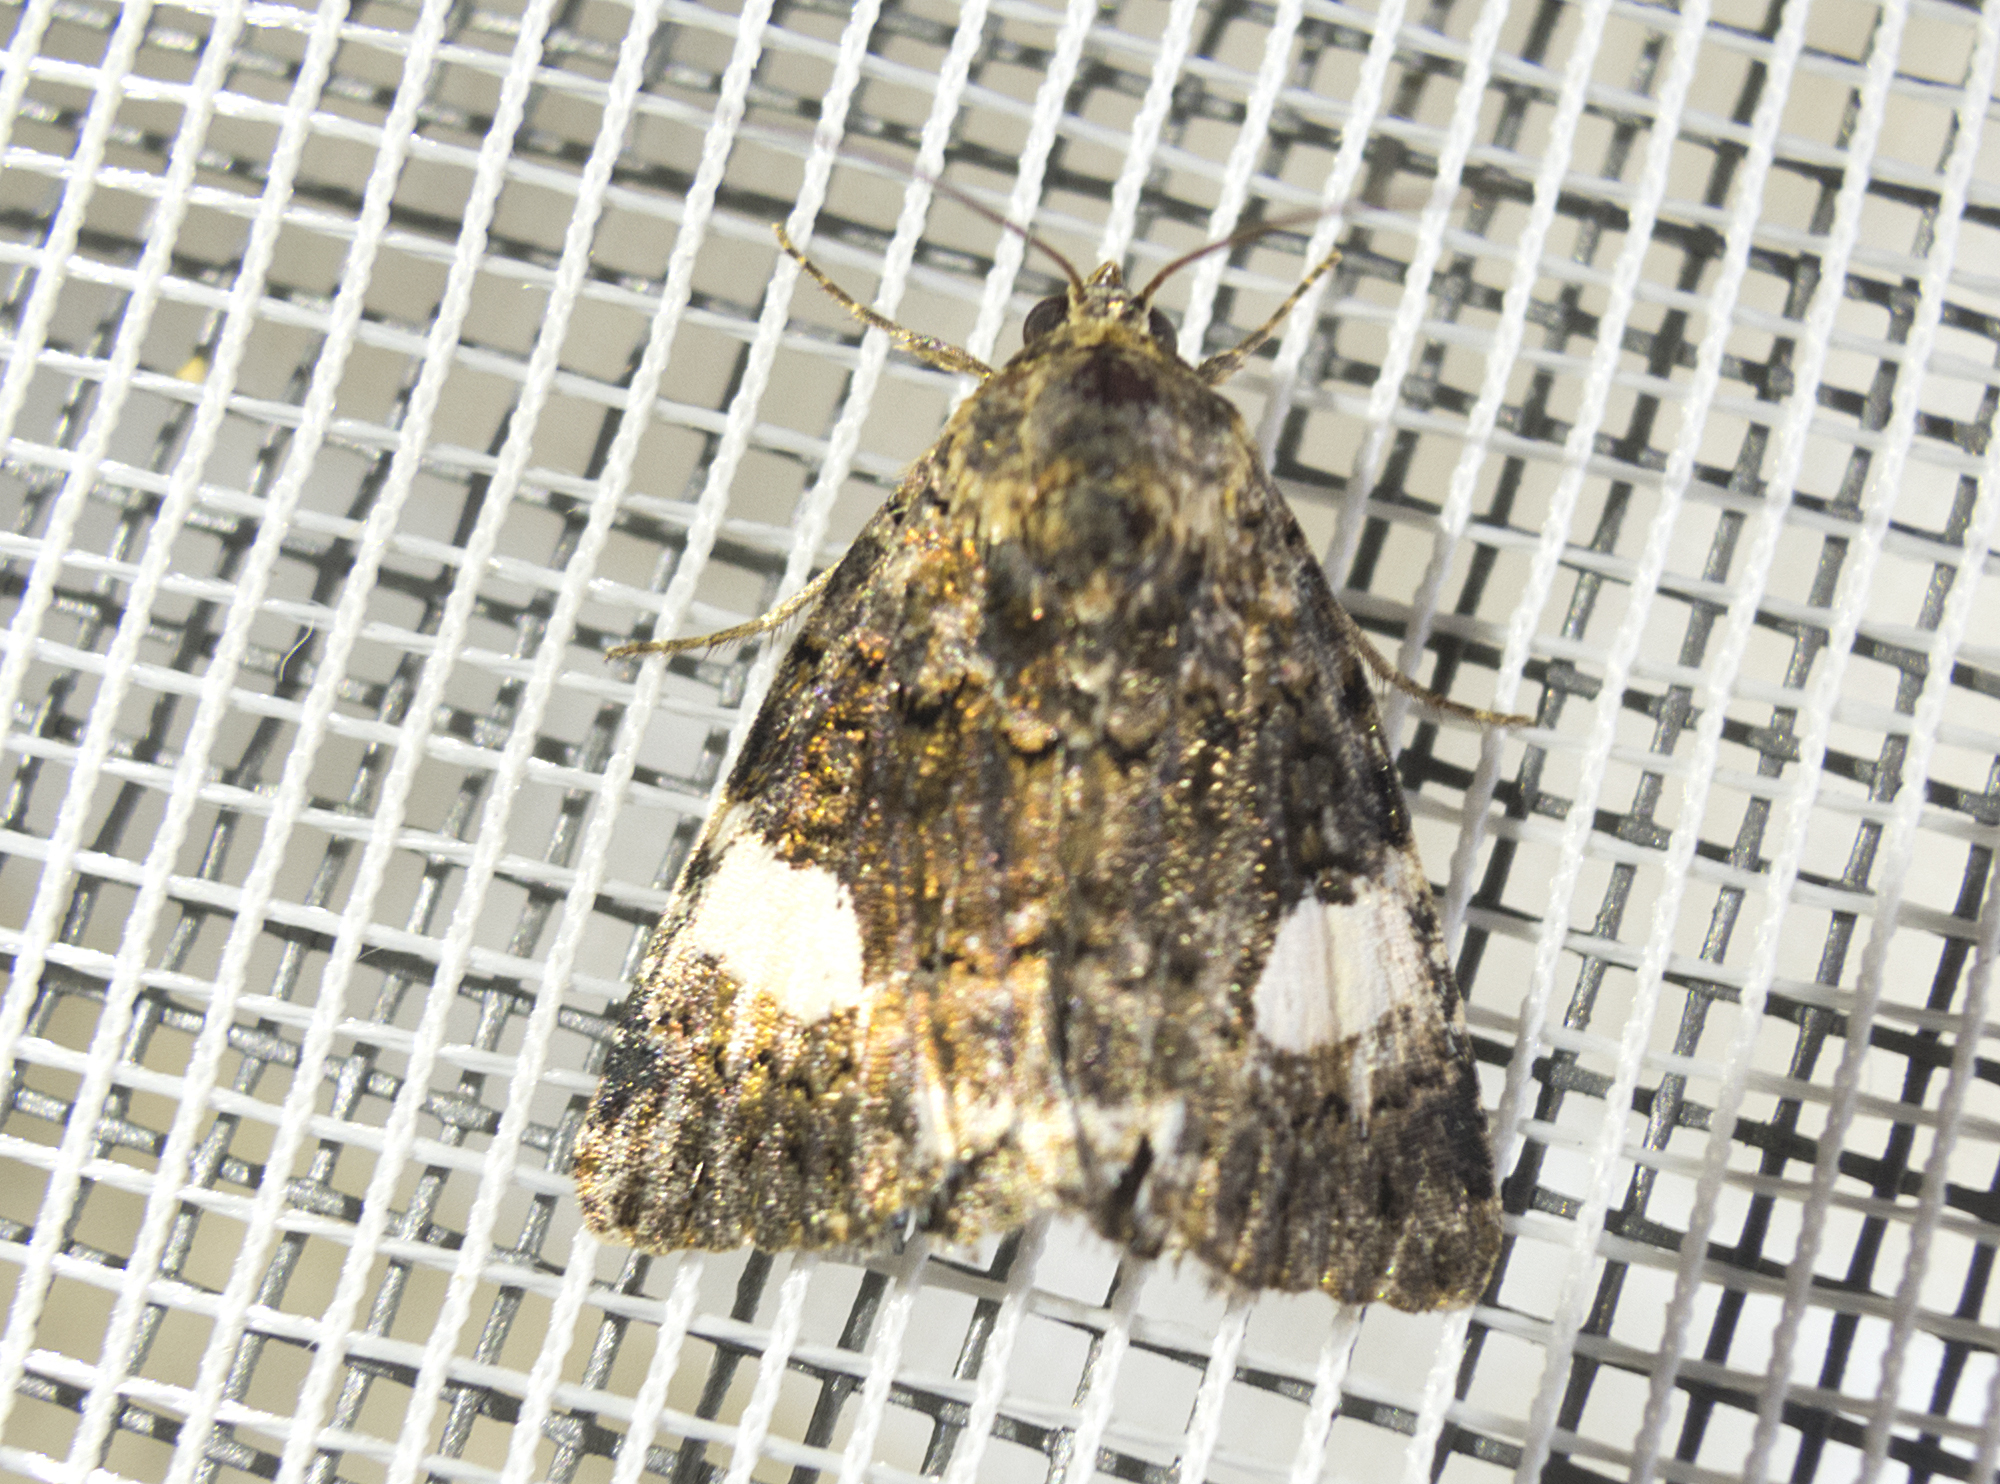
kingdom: Animalia
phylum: Arthropoda
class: Insecta
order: Lepidoptera
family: Erebidae
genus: Tyta
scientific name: Tyta luctuosa
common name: Four-spotted
